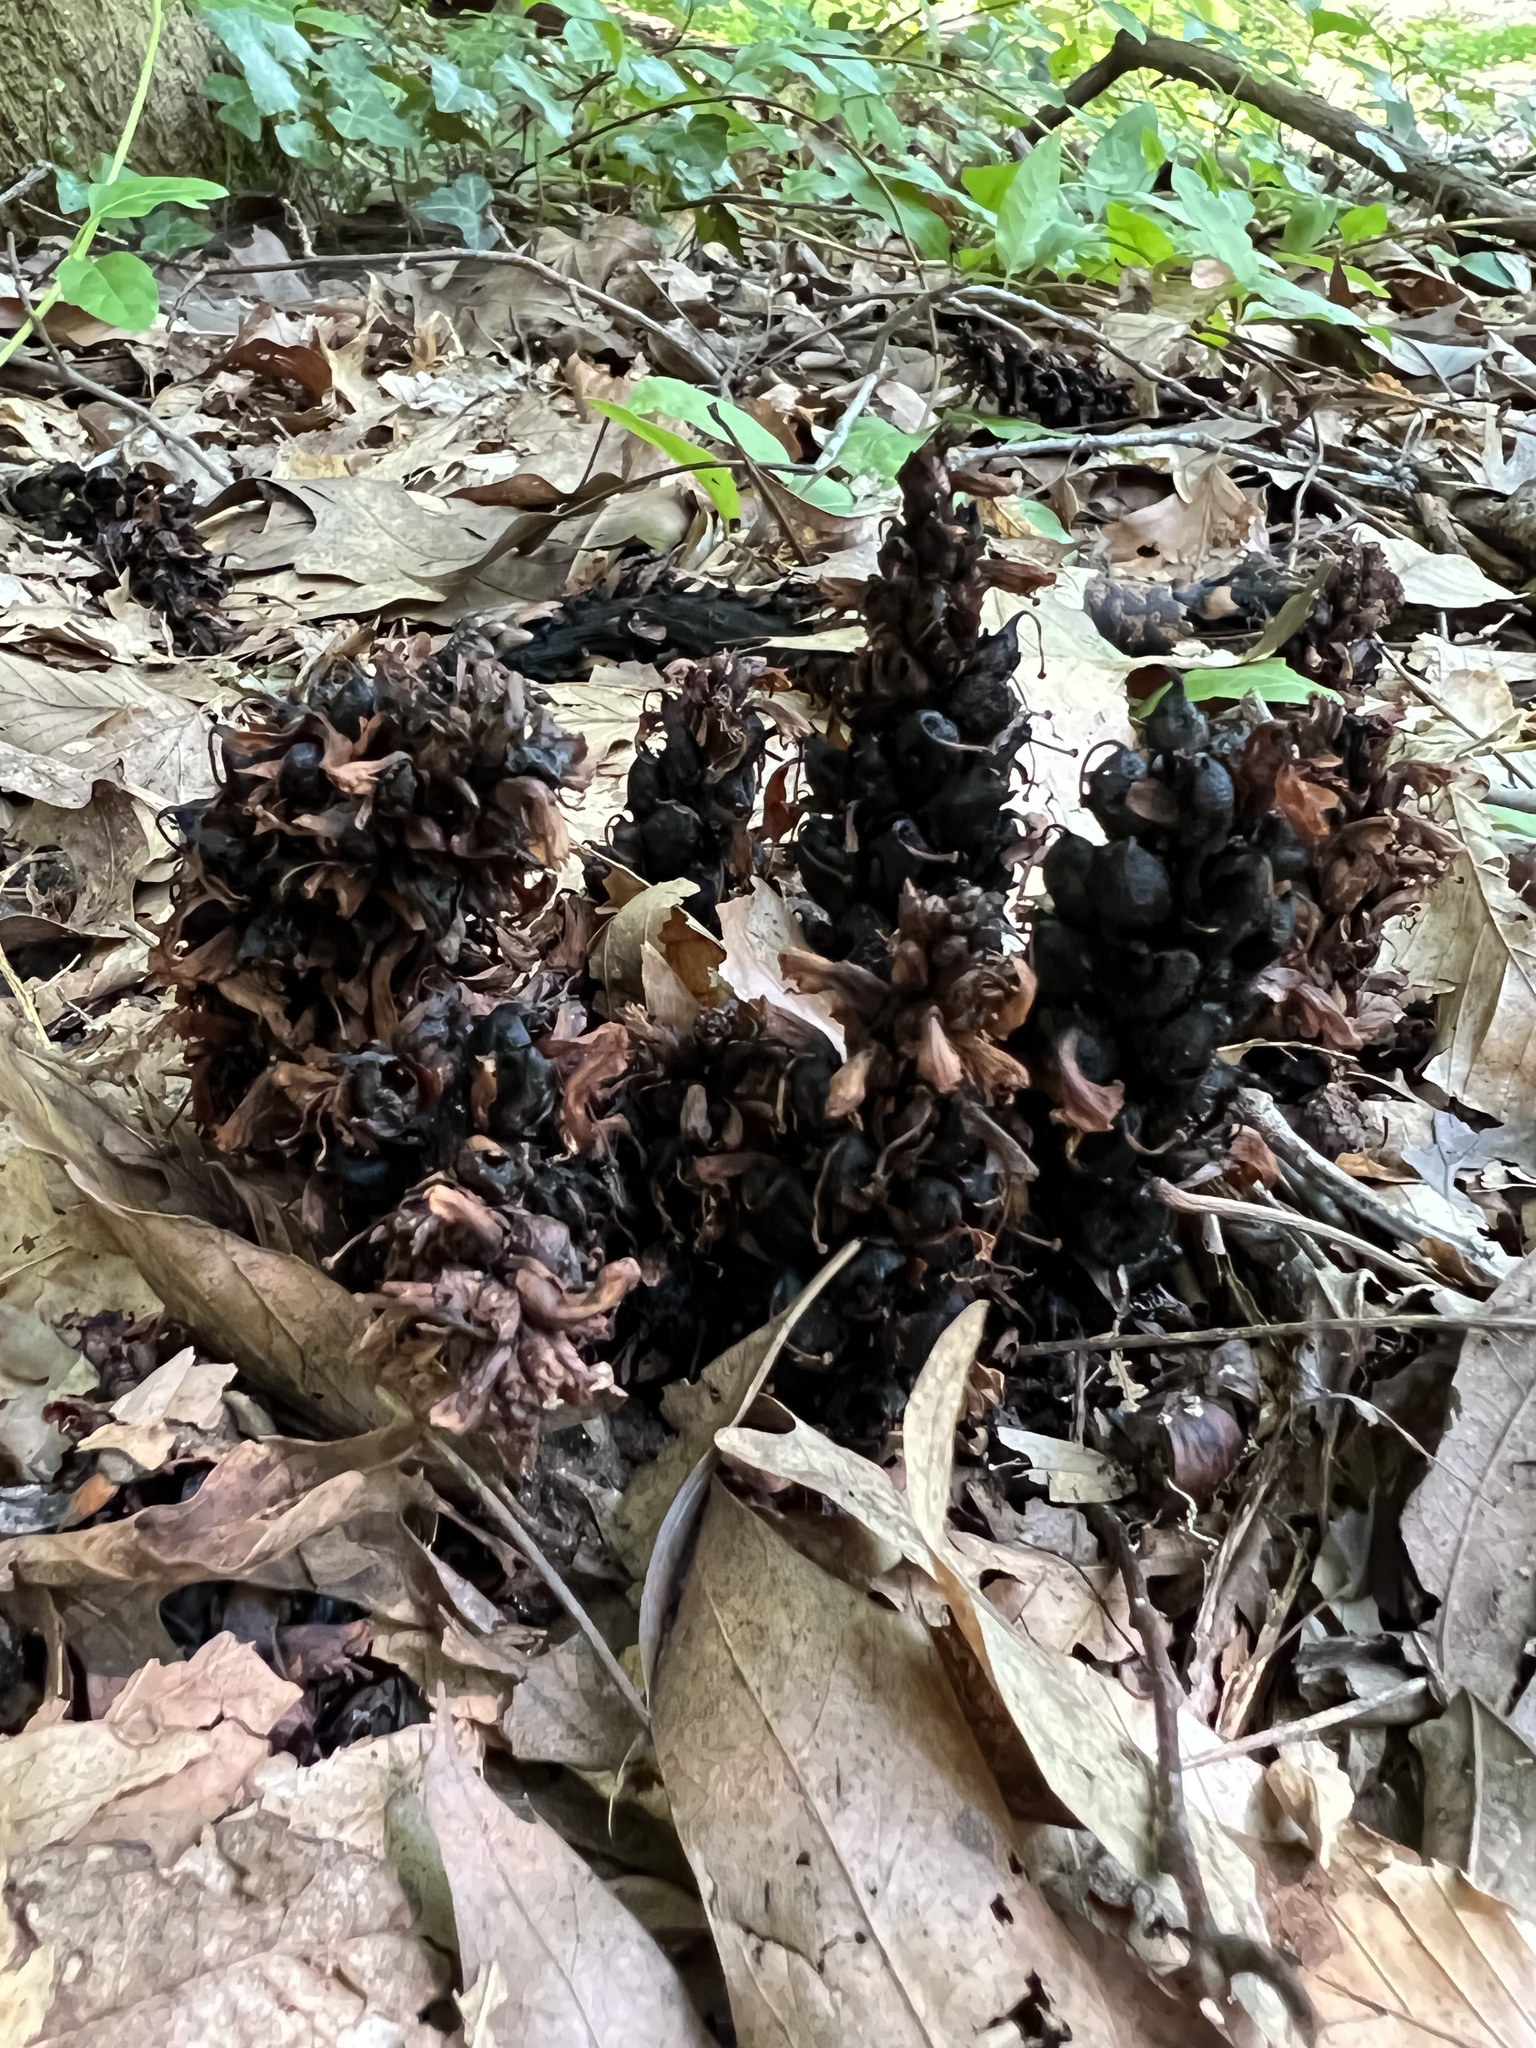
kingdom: Plantae
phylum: Tracheophyta
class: Magnoliopsida
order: Lamiales
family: Orobanchaceae
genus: Conopholis
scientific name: Conopholis americana
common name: American cancer-root
